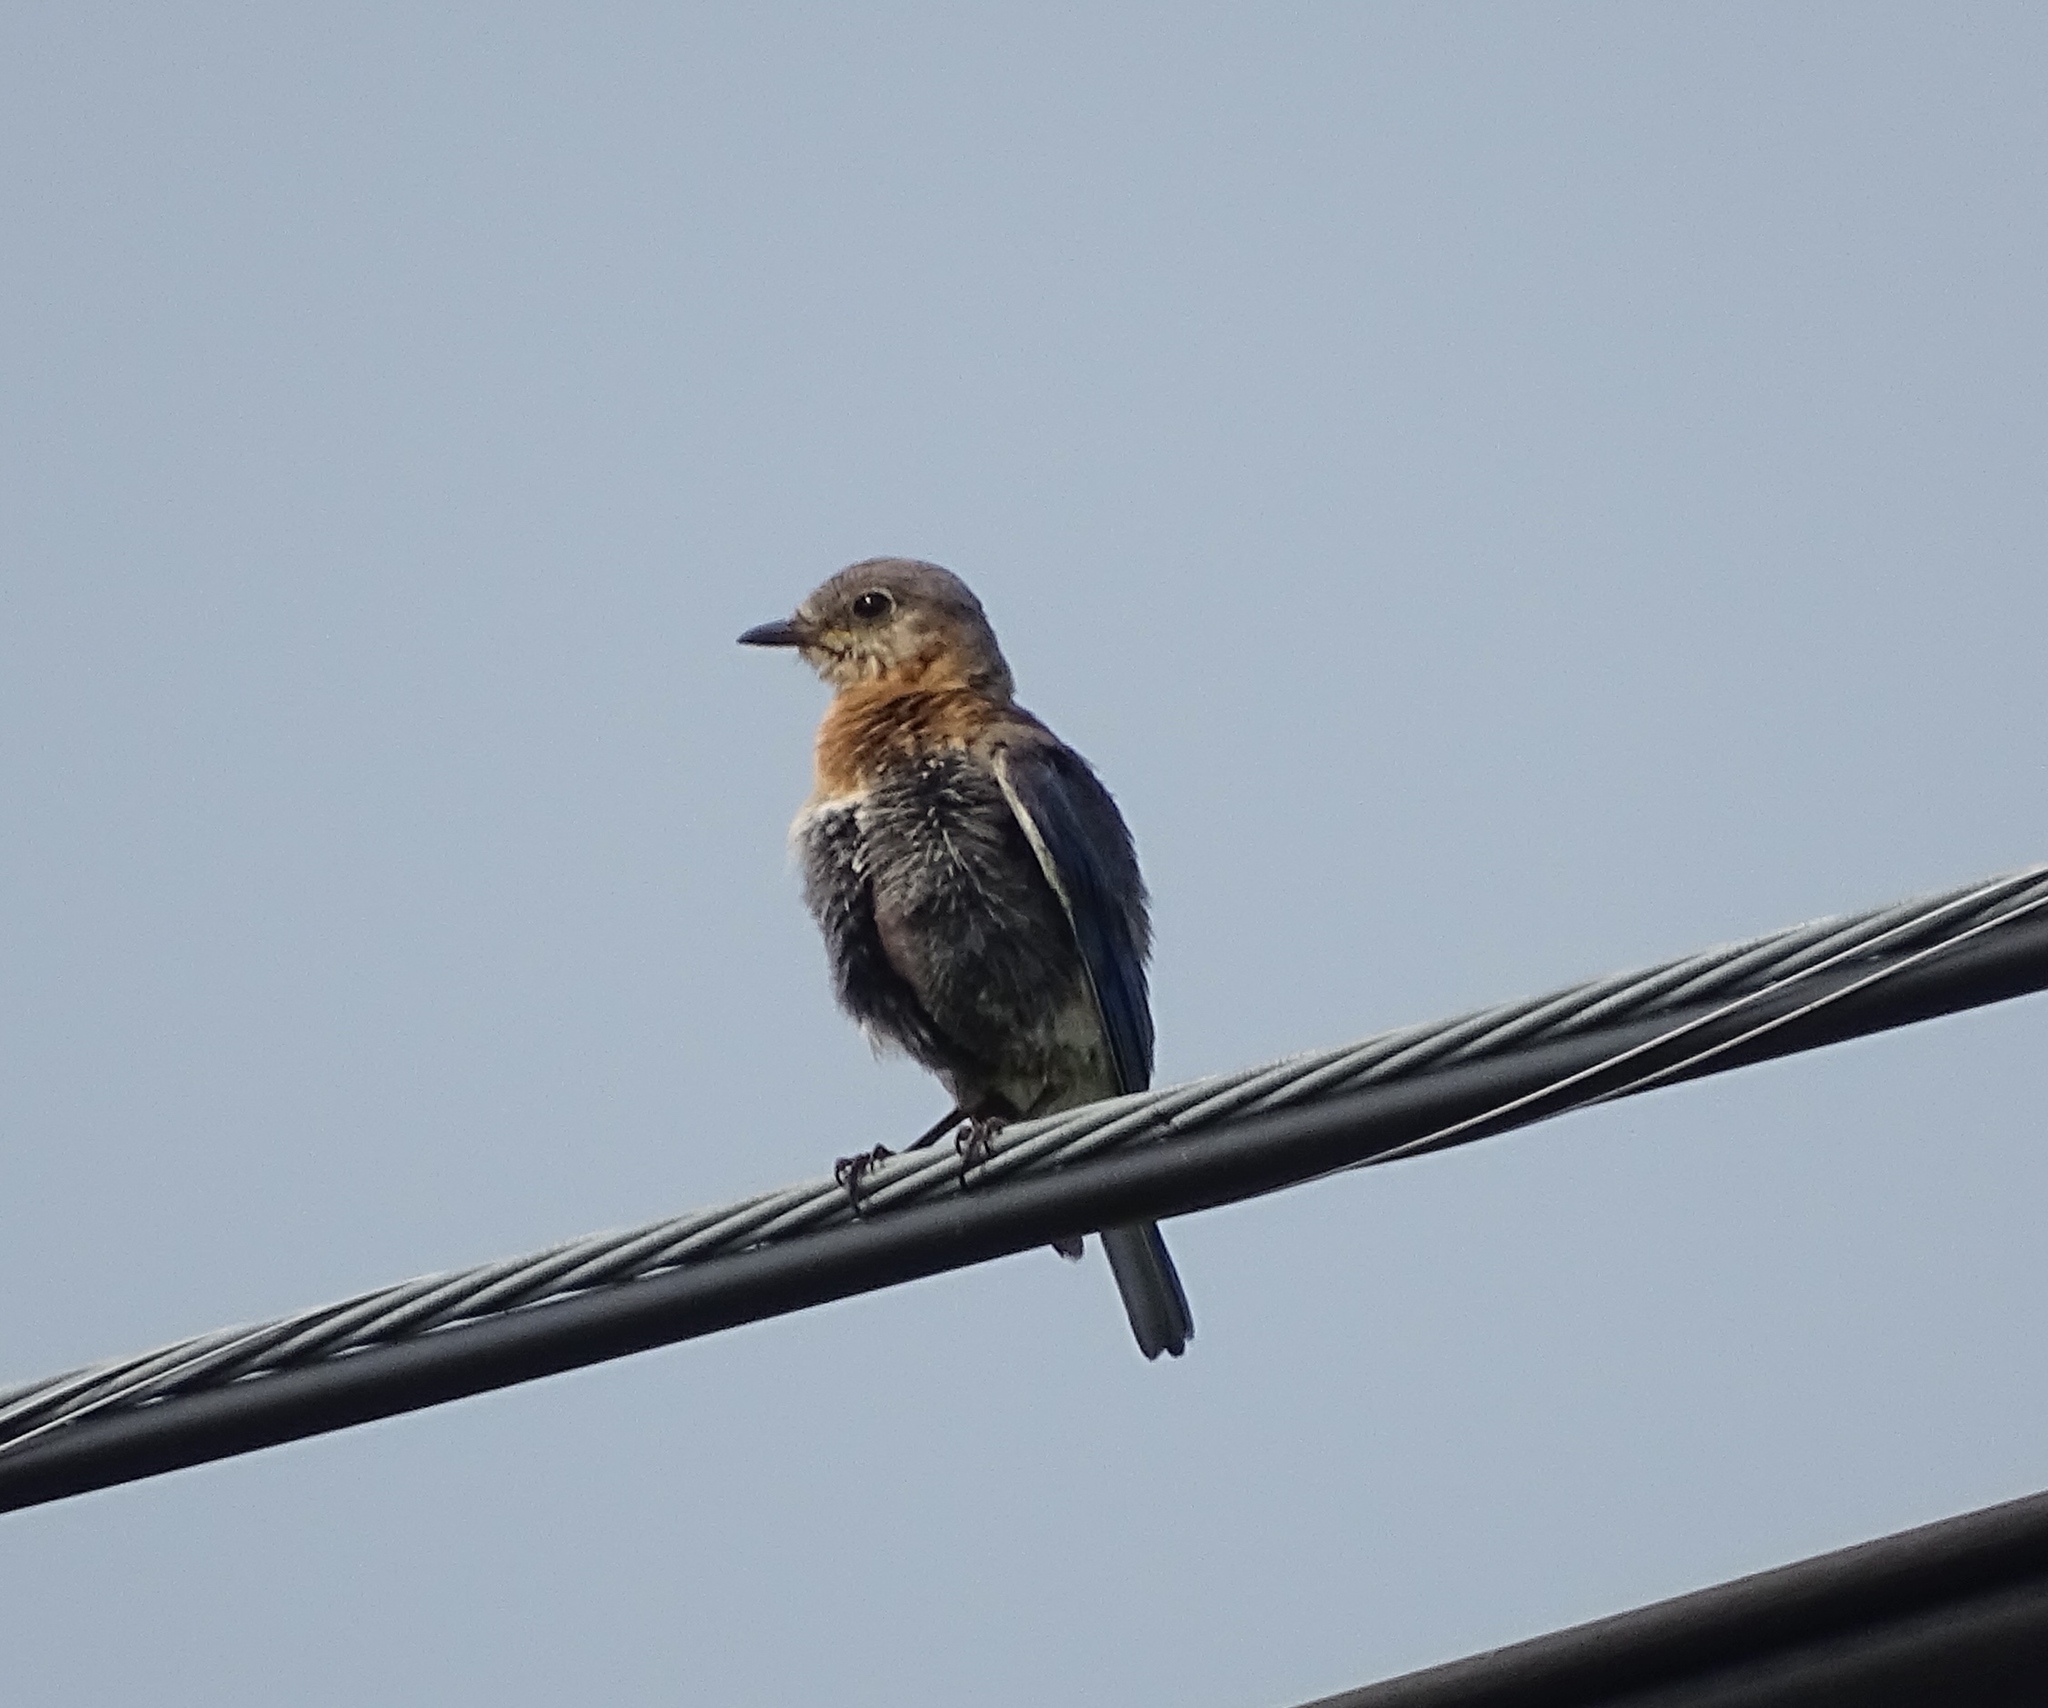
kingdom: Animalia
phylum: Chordata
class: Aves
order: Passeriformes
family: Turdidae
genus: Sialia
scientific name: Sialia sialis
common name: Eastern bluebird
